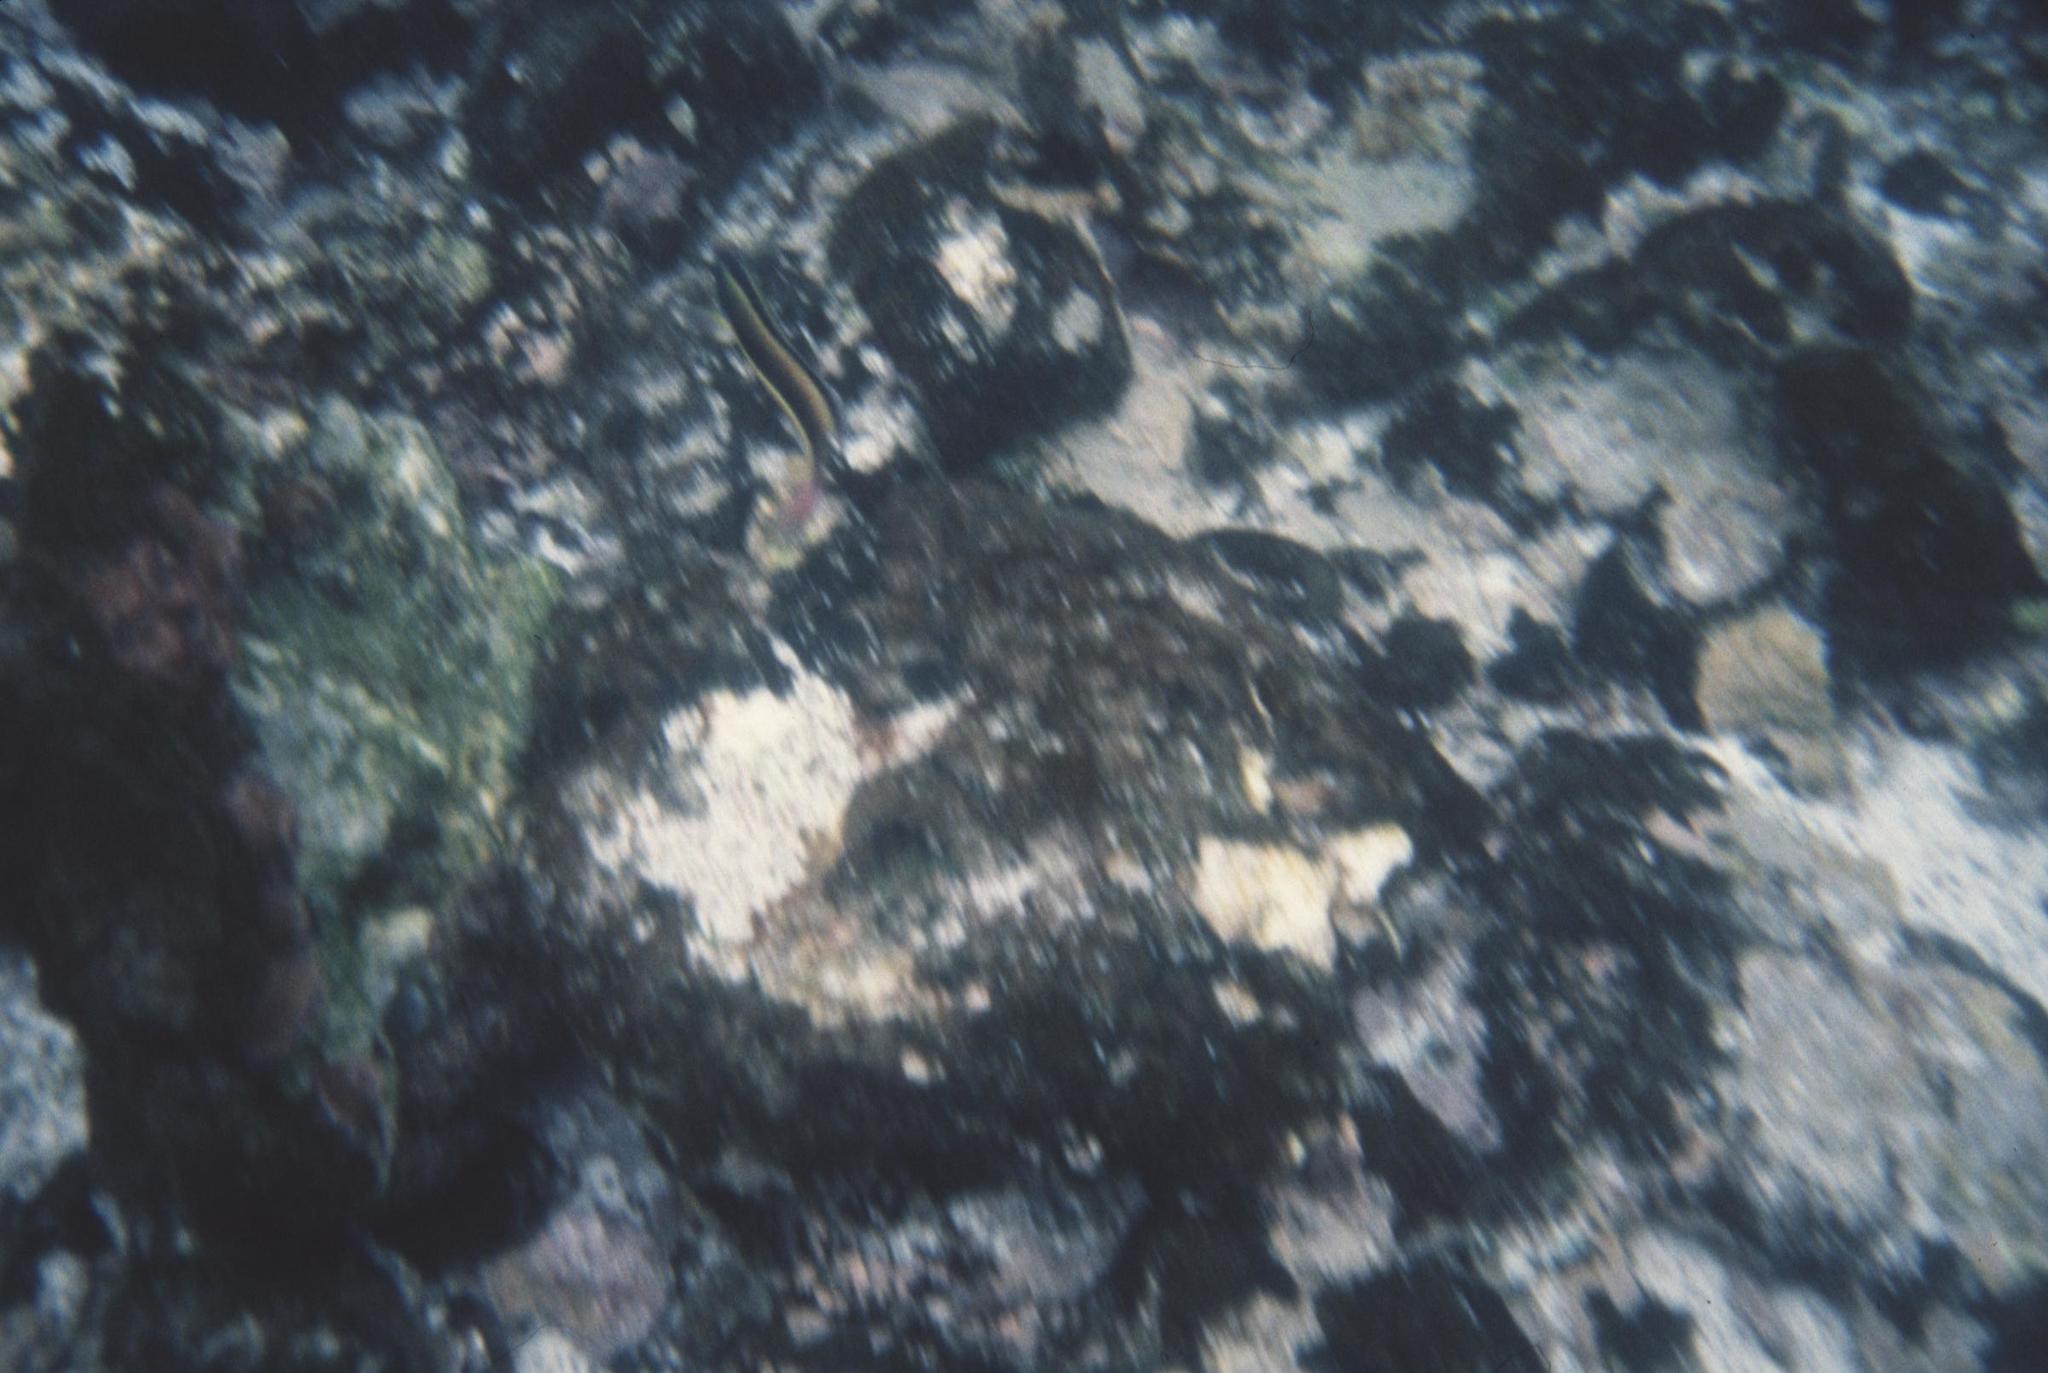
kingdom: Animalia
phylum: Chordata
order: Perciformes
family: Labridae
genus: Thalassoma
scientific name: Thalassoma lucasanum
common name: Cortez rainbow wrasse
